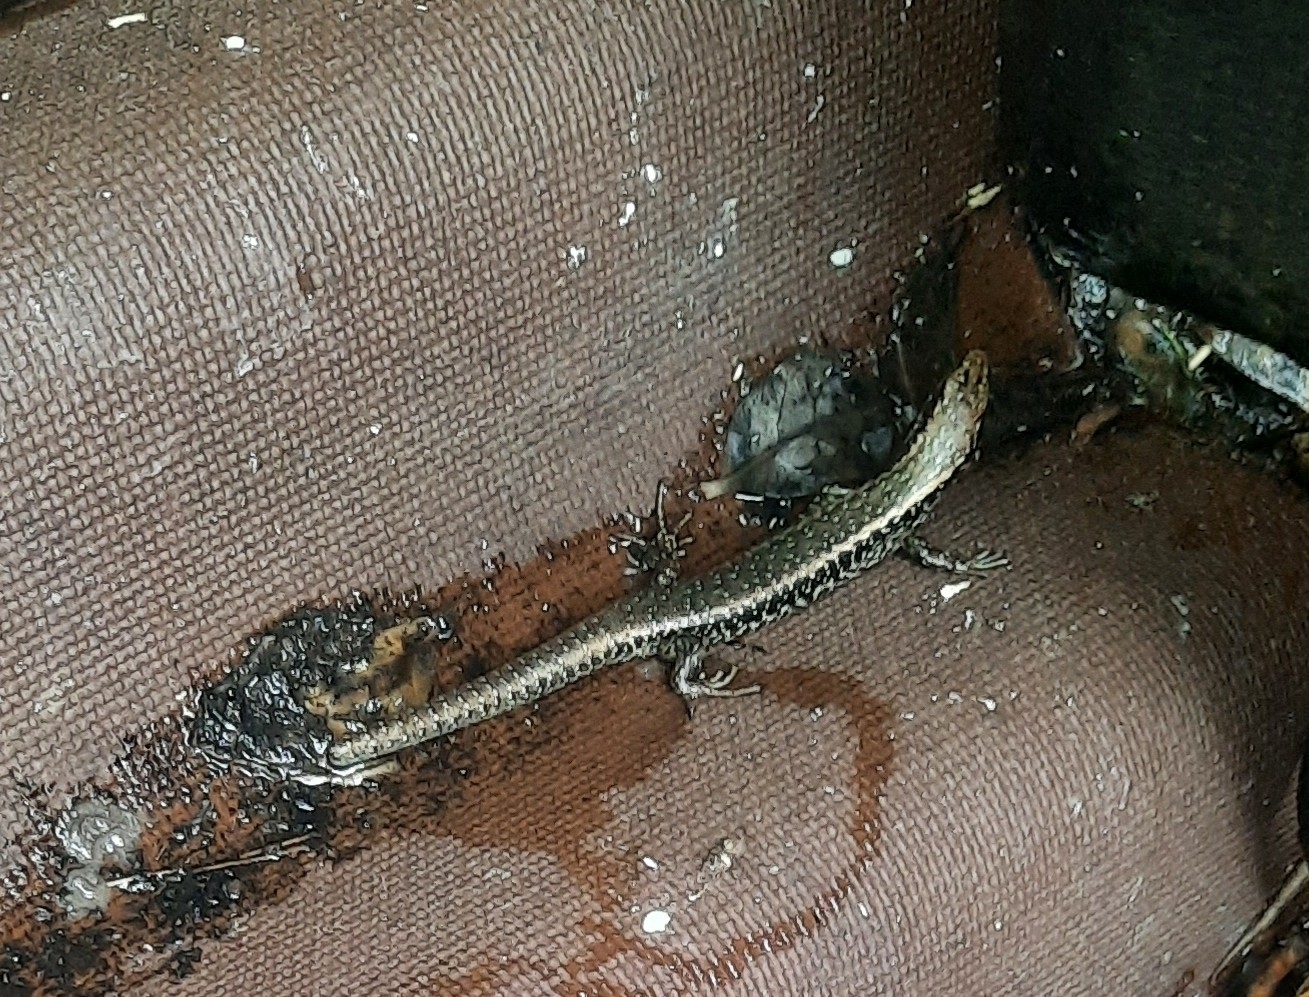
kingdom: Animalia
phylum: Chordata
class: Squamata
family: Scincidae
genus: Oligosoma
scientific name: Oligosoma kokowai
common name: Northern spotted skink
